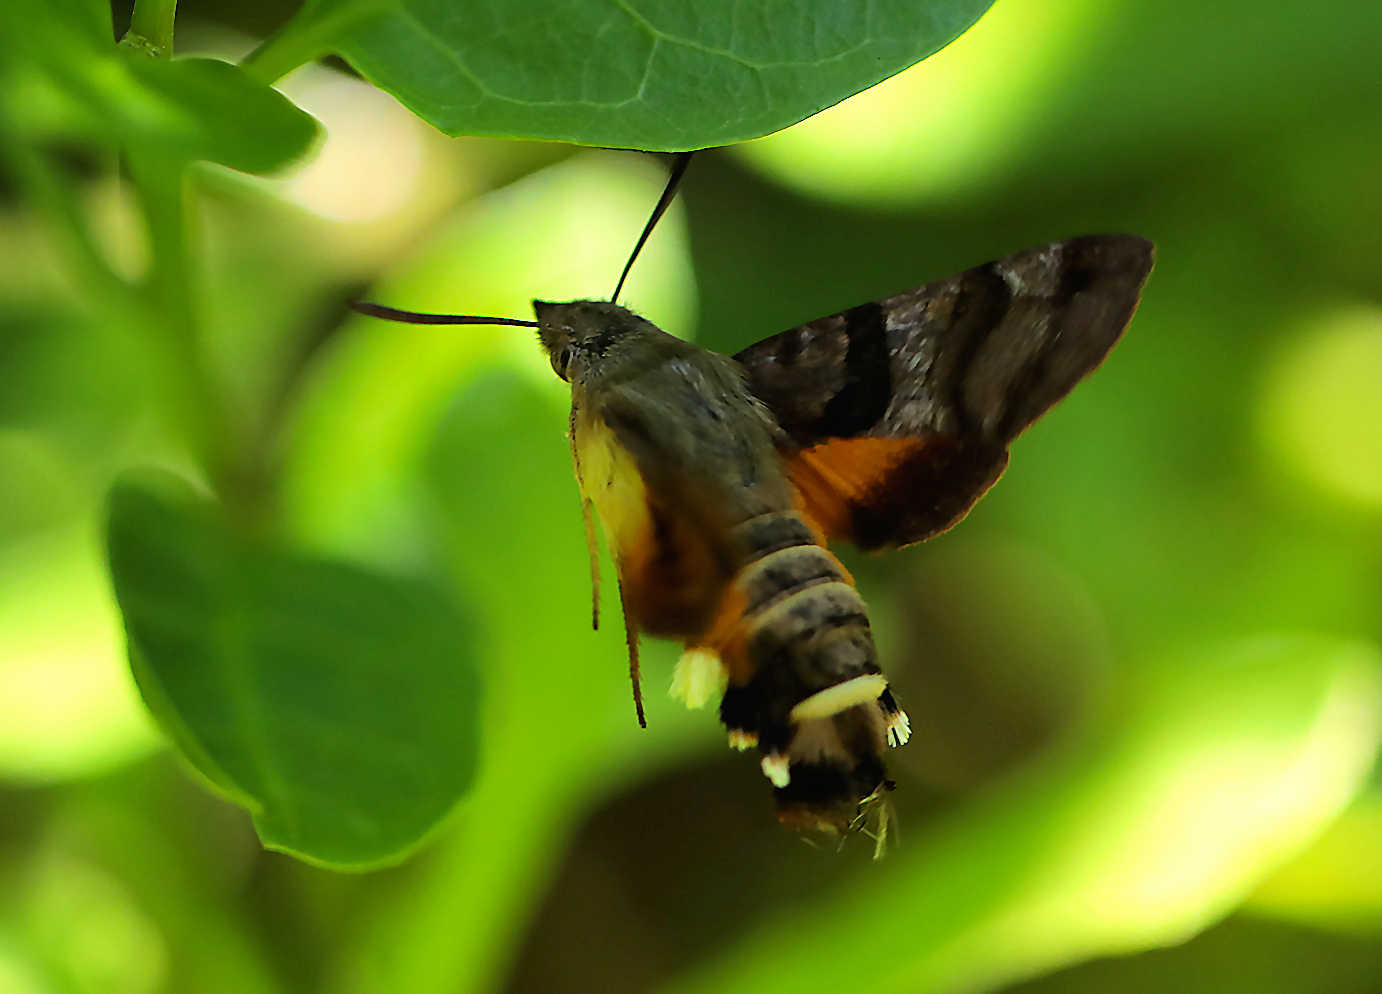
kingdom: Animalia
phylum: Arthropoda
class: Insecta
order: Lepidoptera
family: Sphingidae
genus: Macroglossum
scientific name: Macroglossum trochilus
